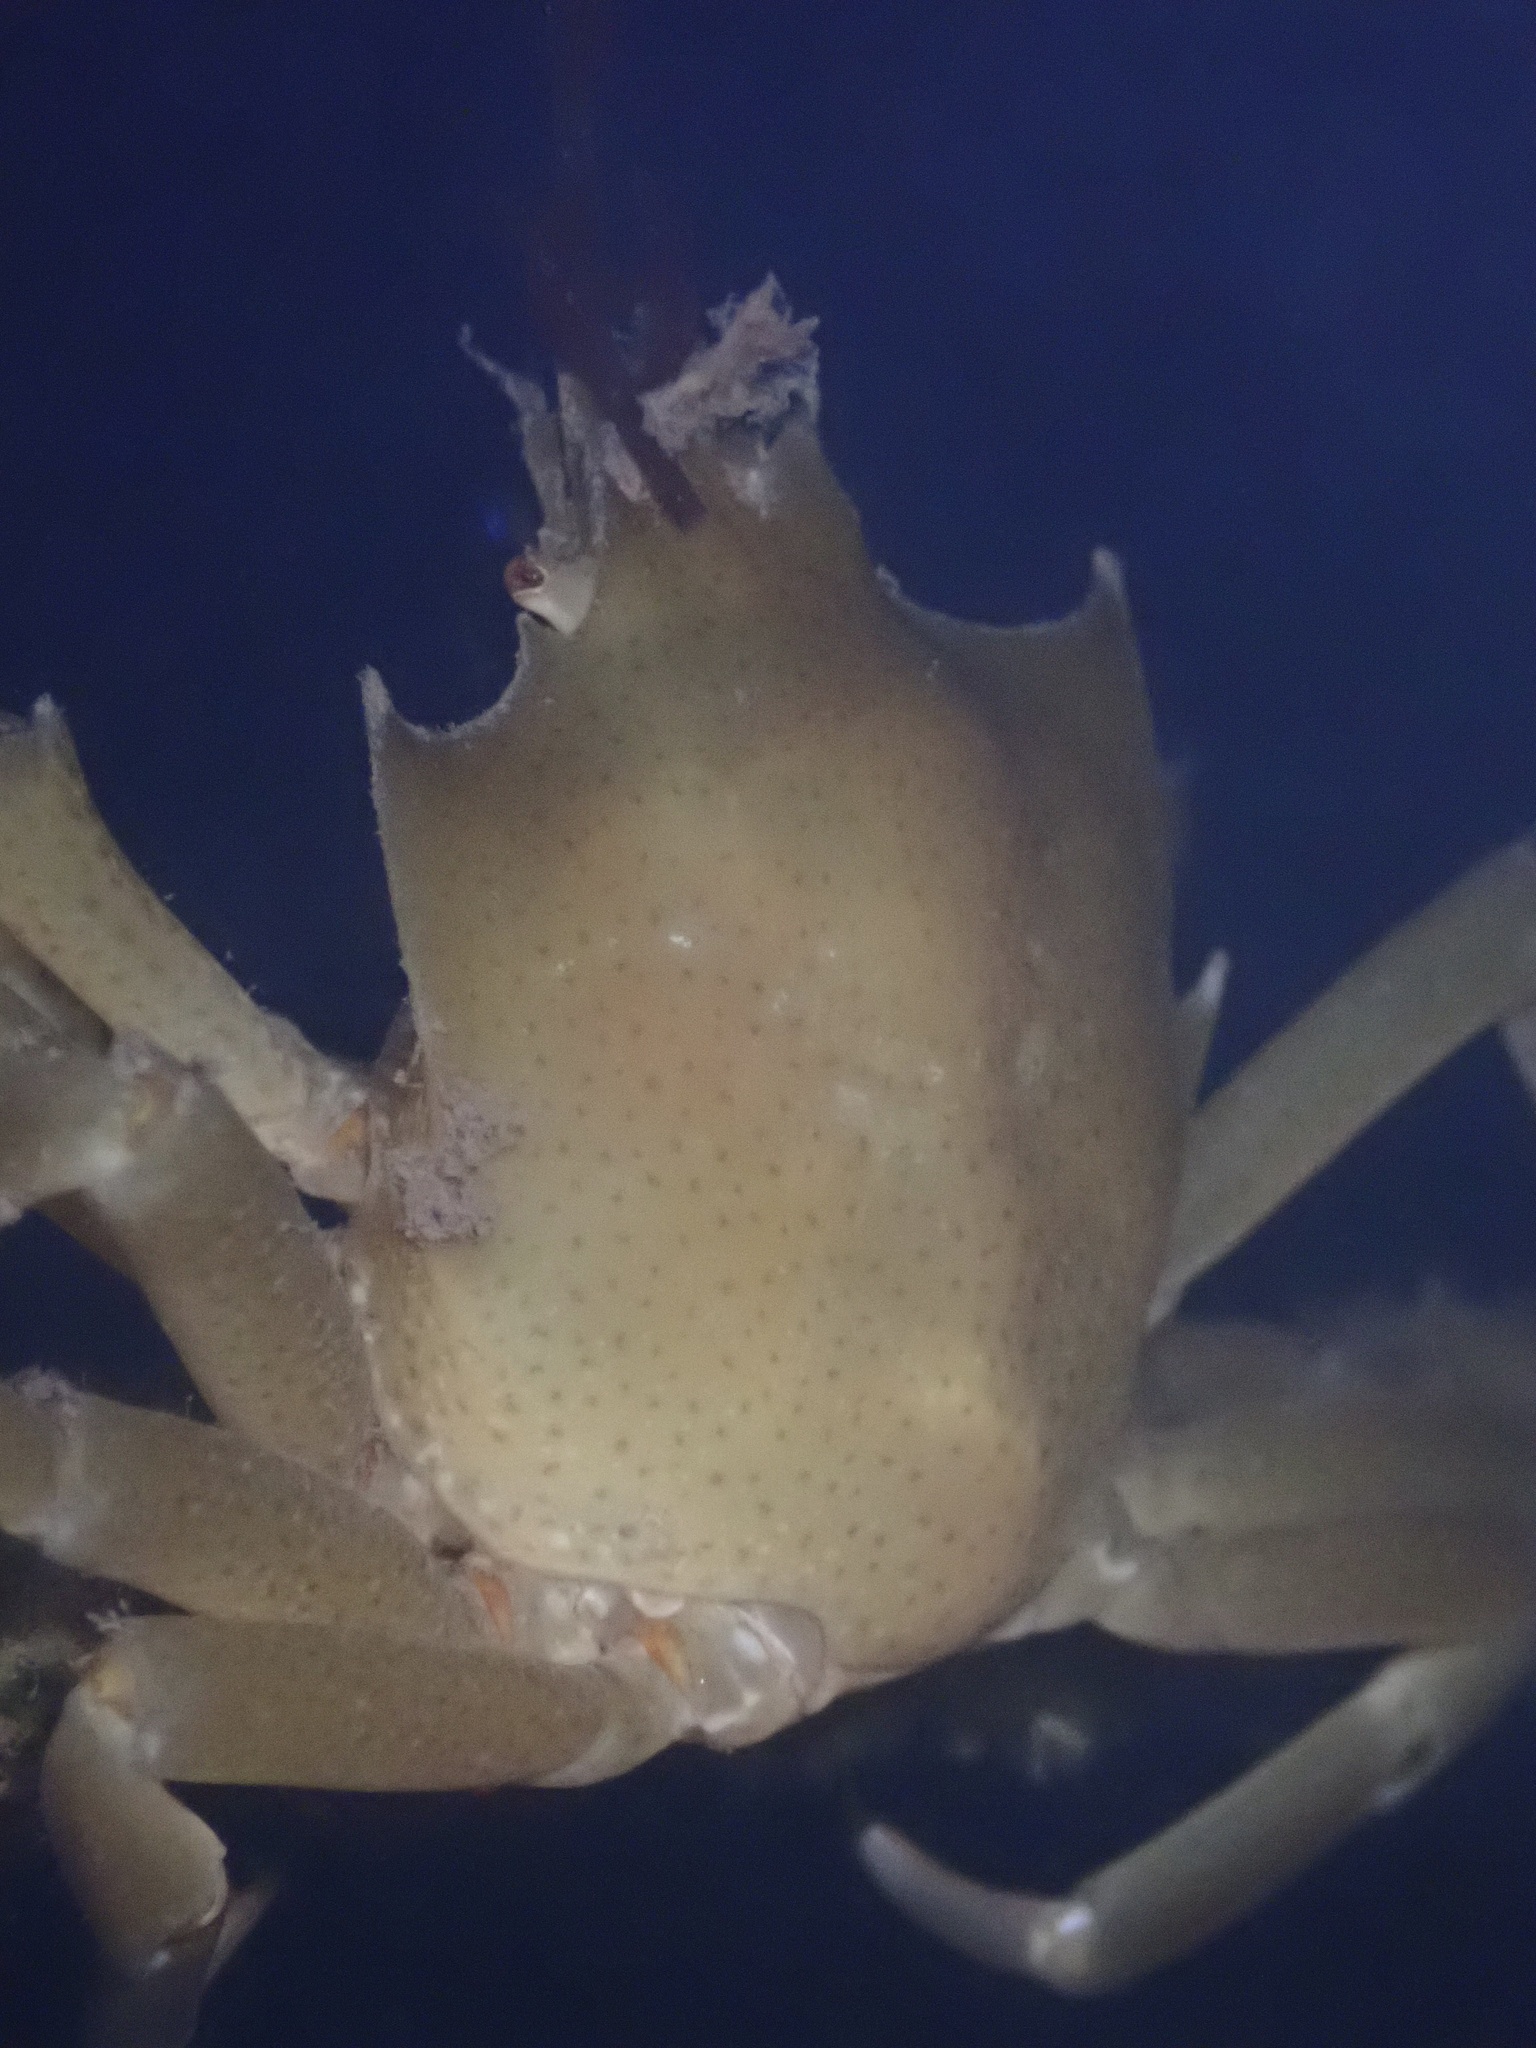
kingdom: Animalia
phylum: Arthropoda
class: Malacostraca
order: Decapoda
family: Epialtidae
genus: Pugettia
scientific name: Pugettia producta
